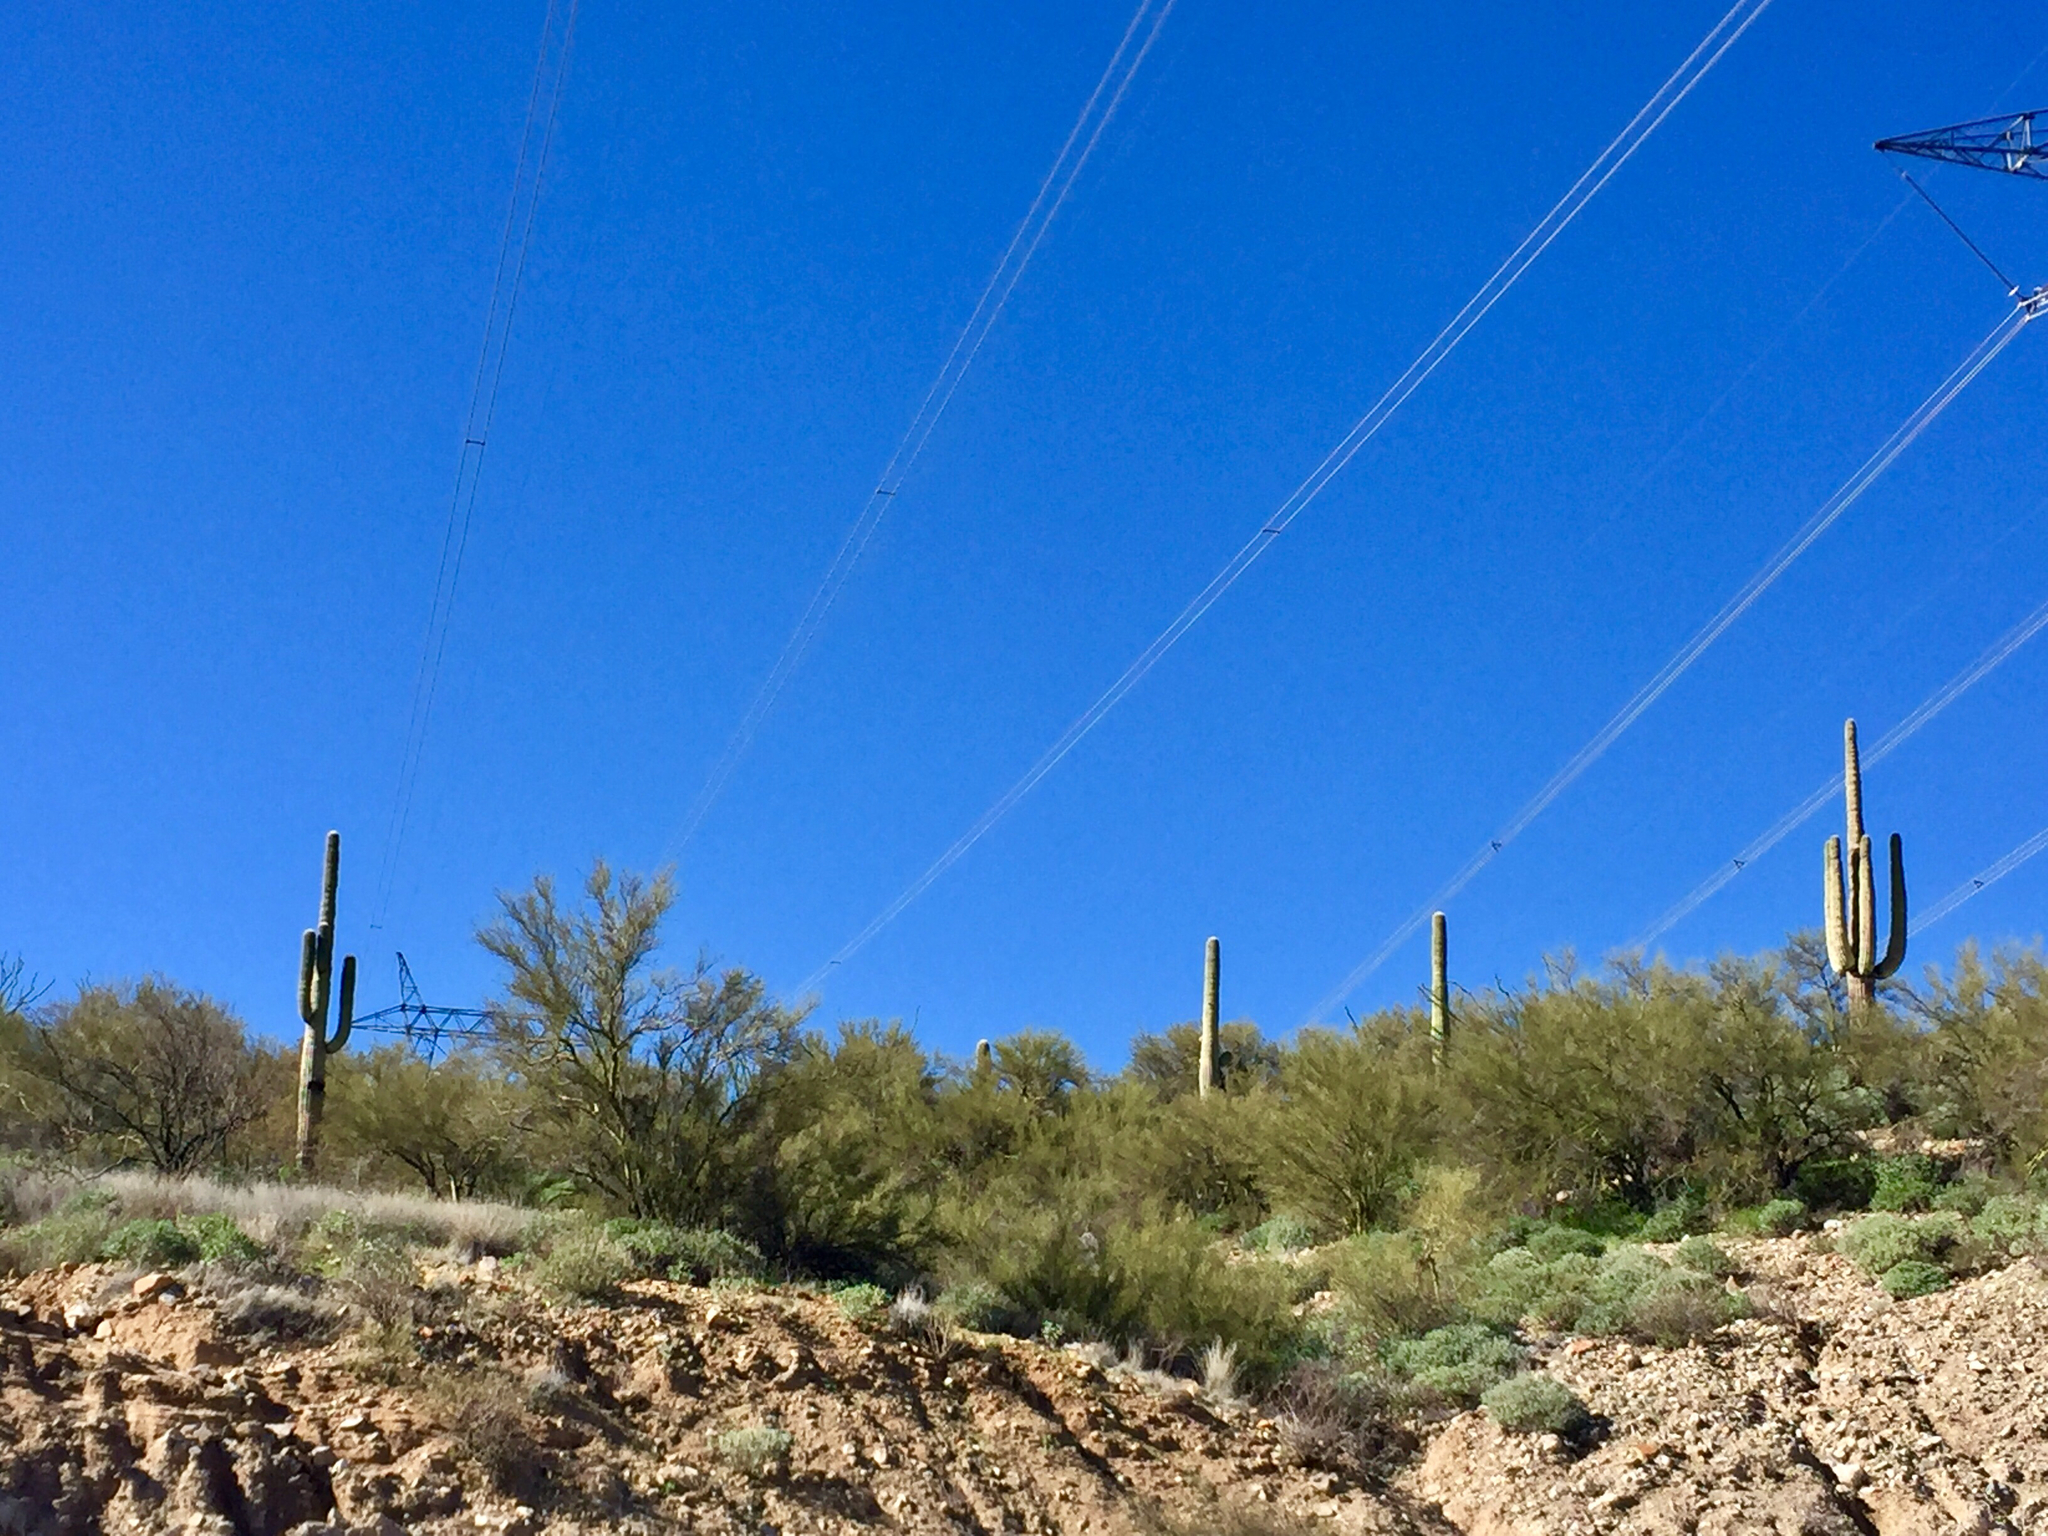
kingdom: Plantae
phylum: Tracheophyta
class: Magnoliopsida
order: Caryophyllales
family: Cactaceae
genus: Carnegiea
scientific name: Carnegiea gigantea
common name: Saguaro
